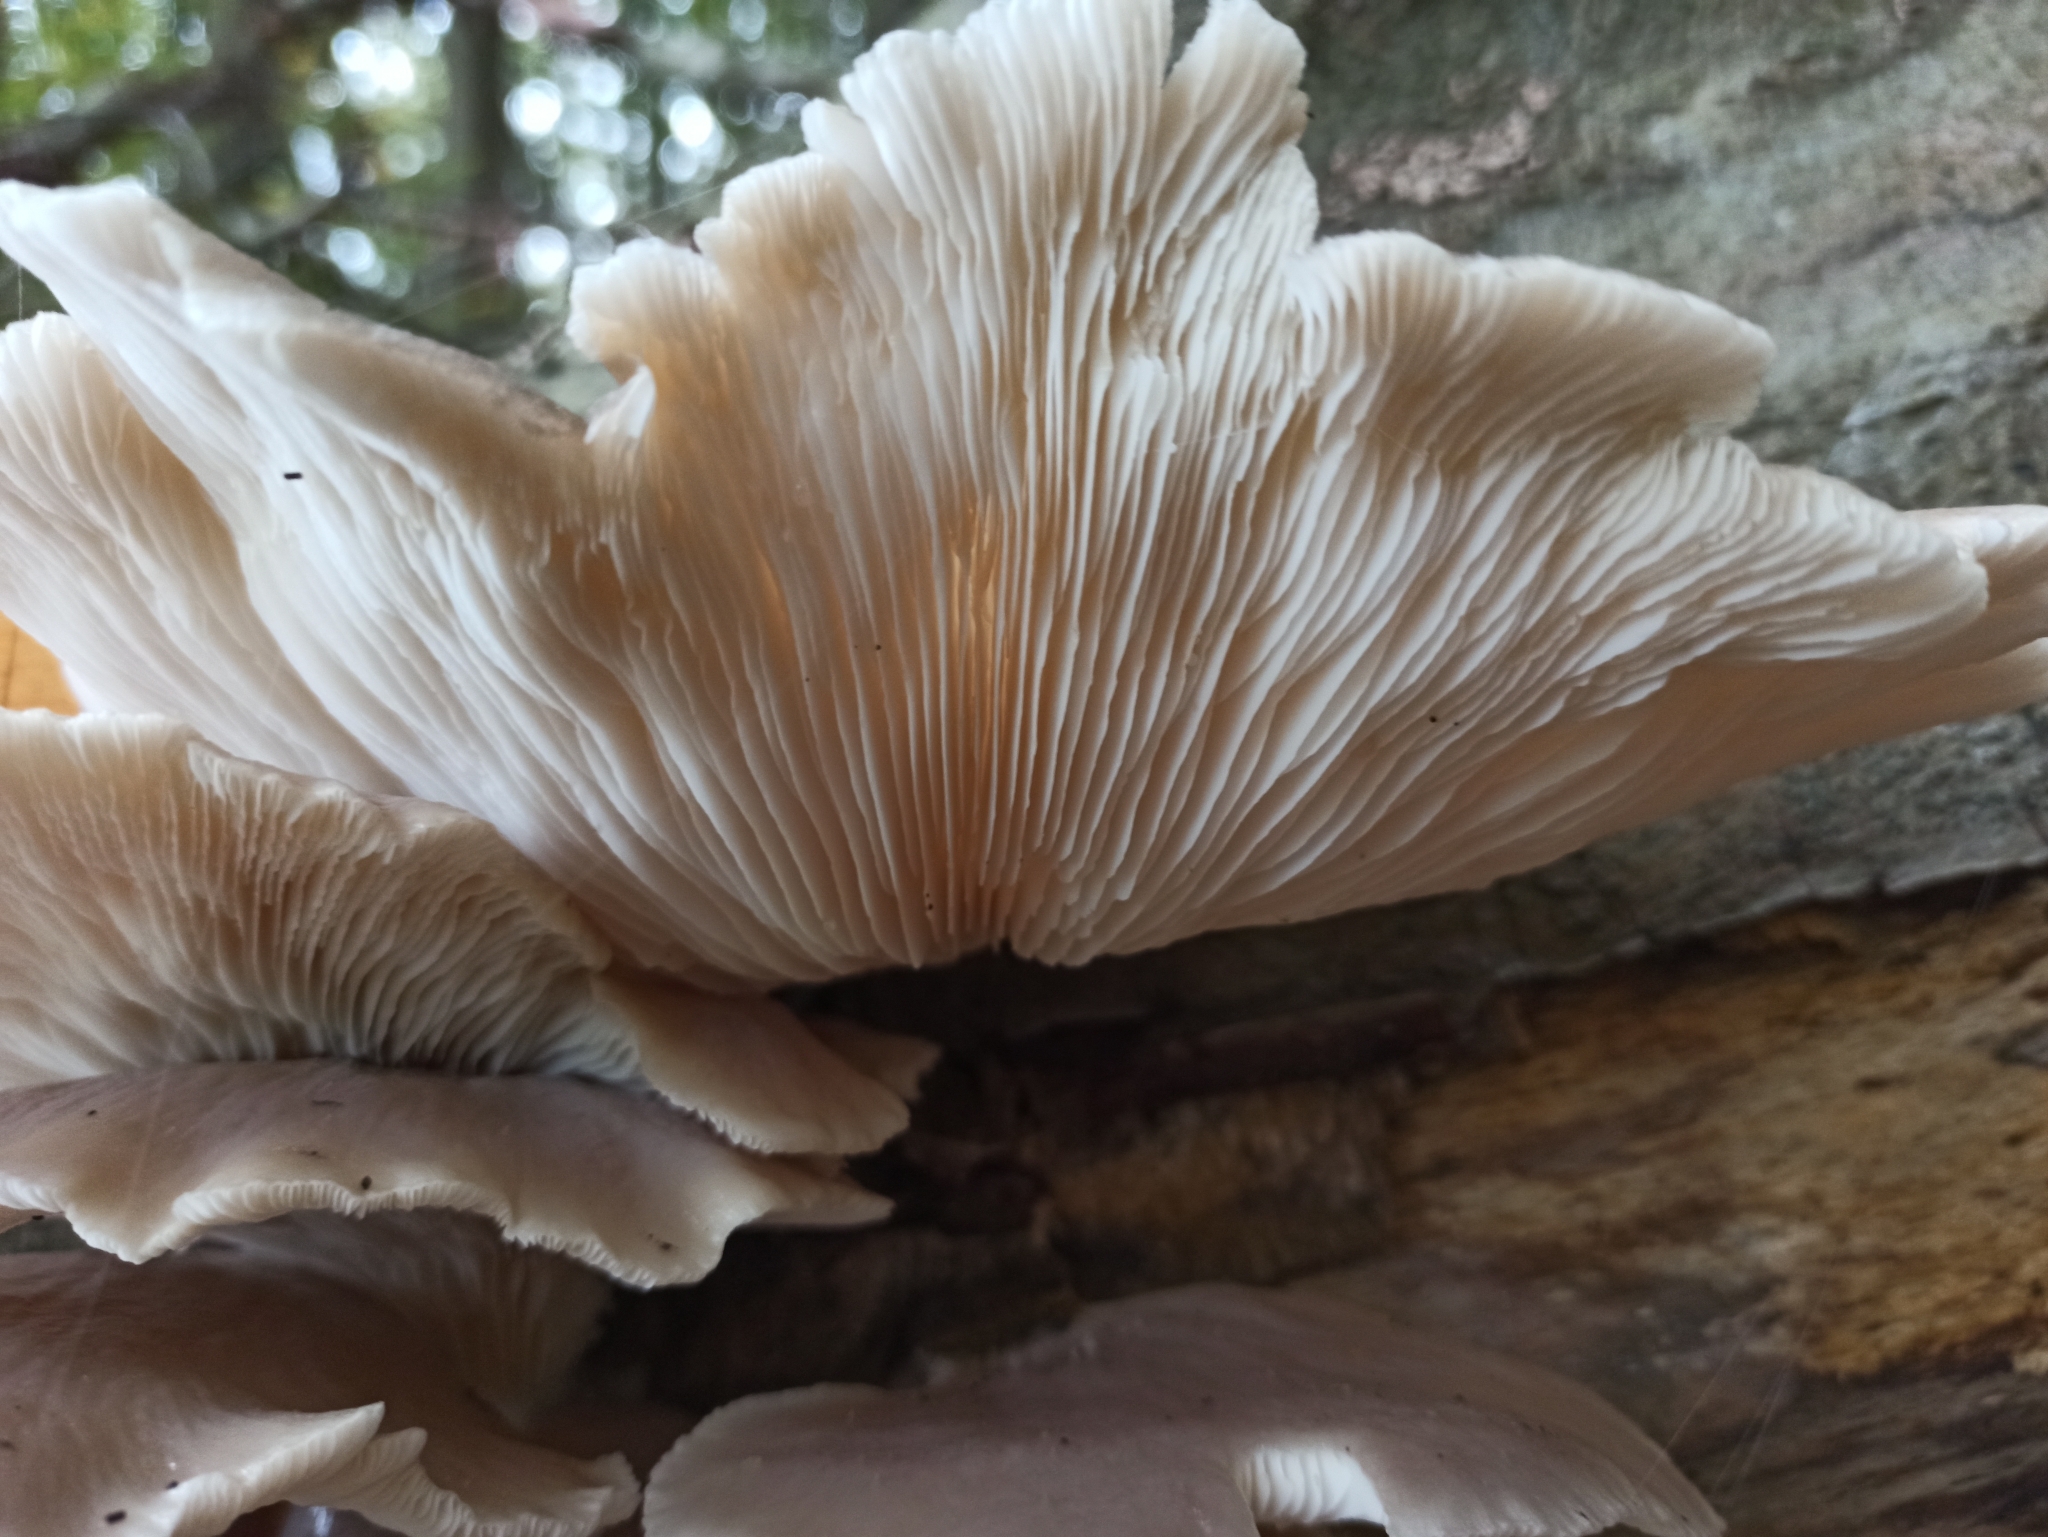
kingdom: Fungi
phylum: Basidiomycota
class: Agaricomycetes
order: Agaricales
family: Pleurotaceae
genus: Pleurotus
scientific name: Pleurotus ostreatus
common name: Oyster mushroom
